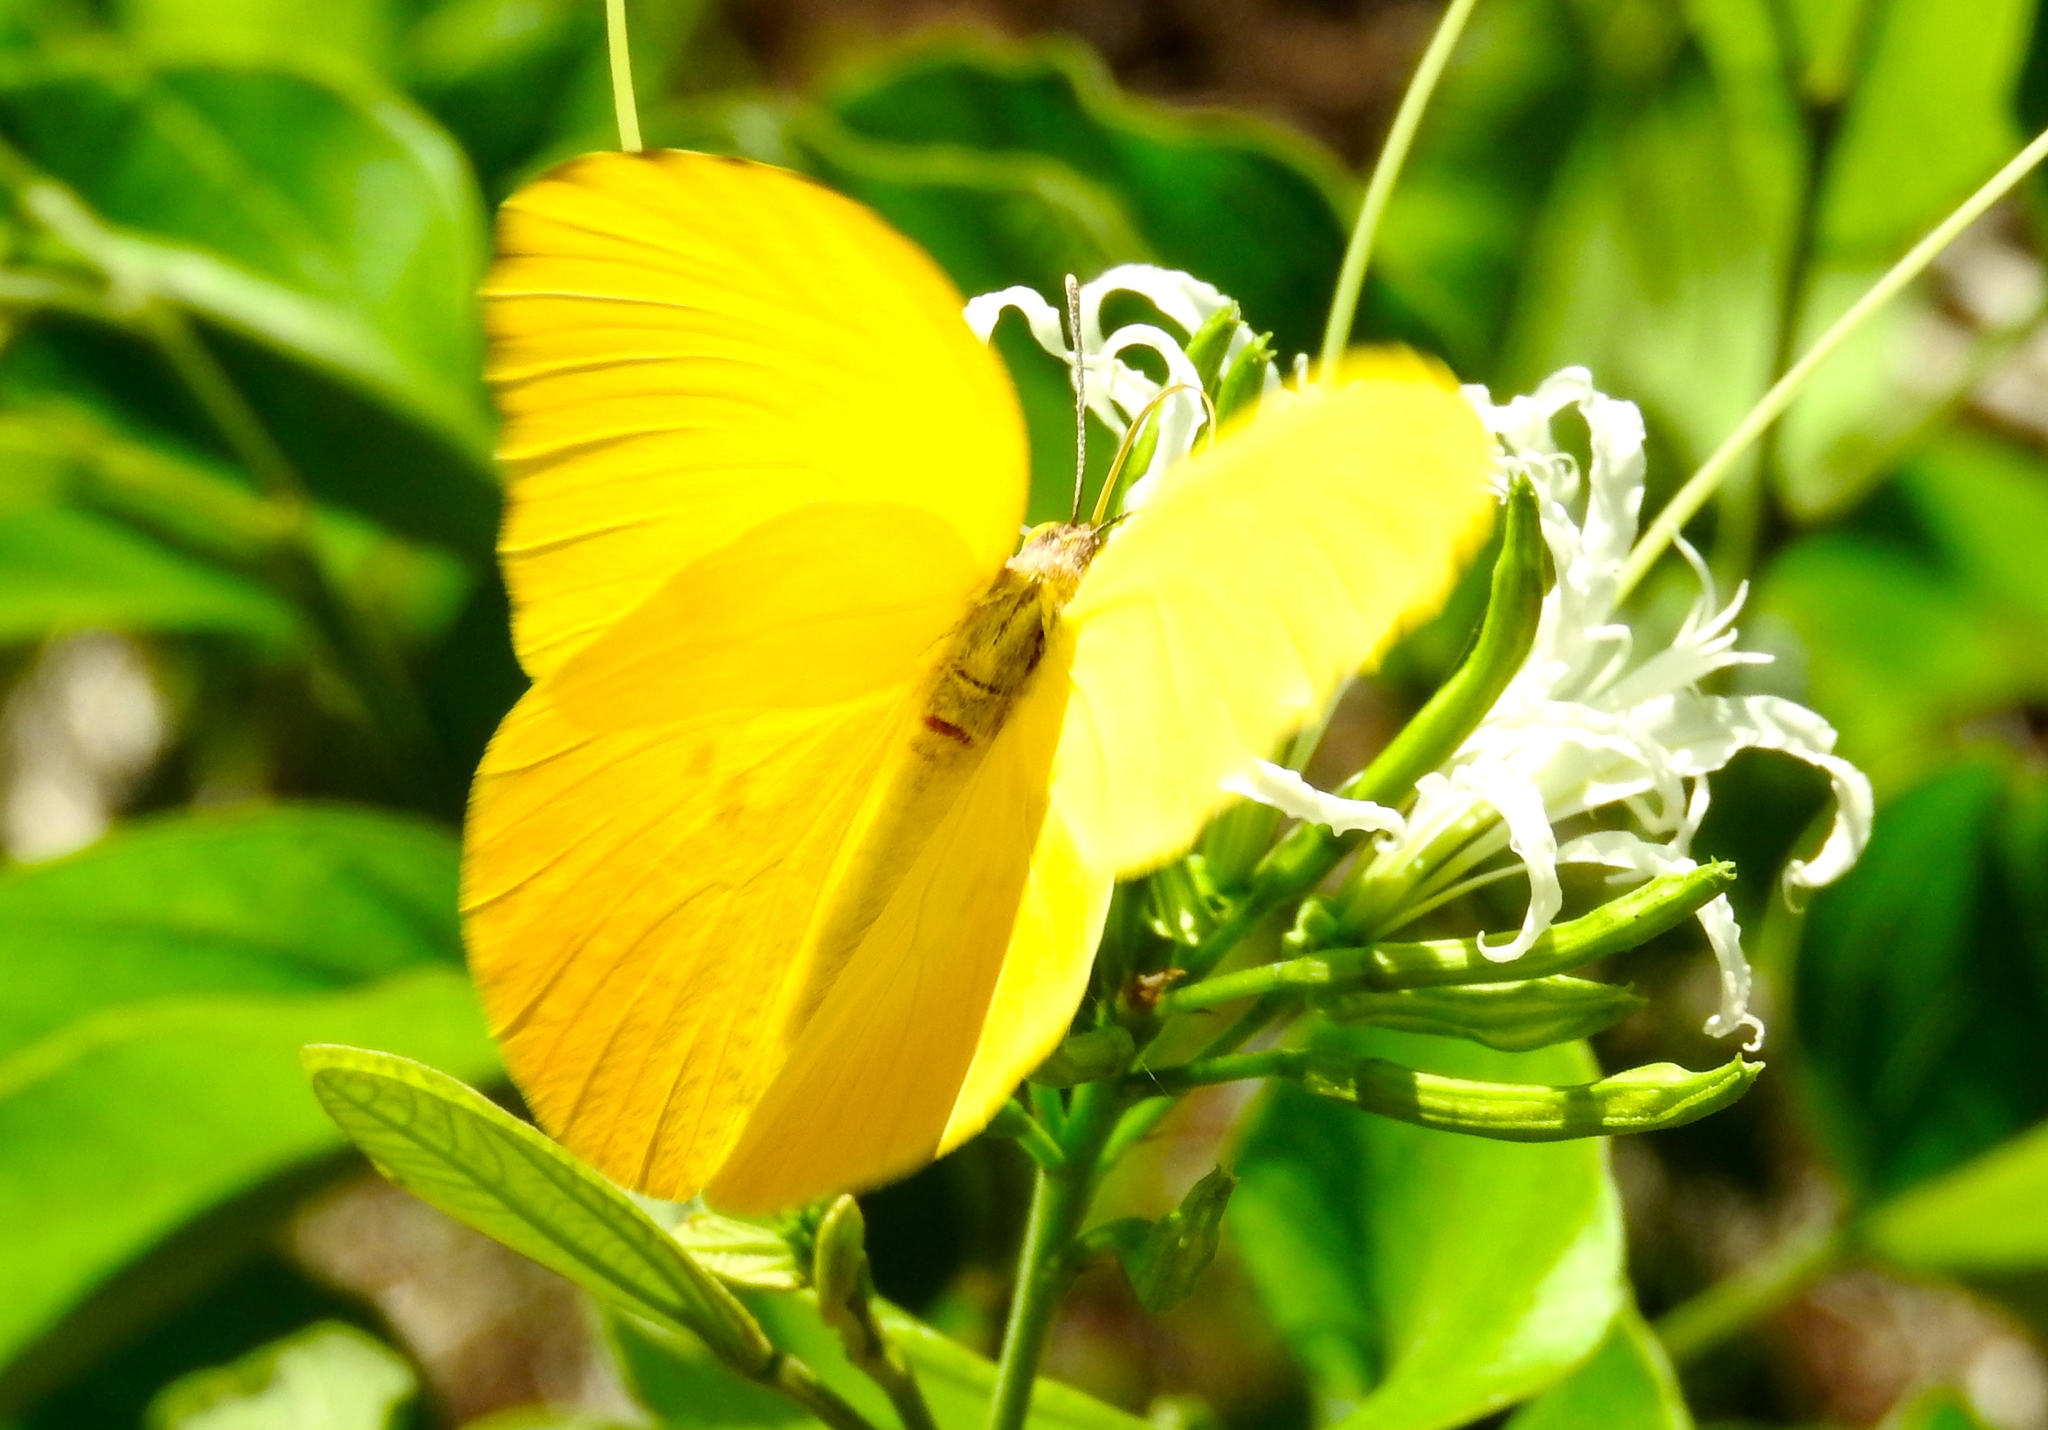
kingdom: Animalia
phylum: Arthropoda
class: Insecta
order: Lepidoptera
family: Pieridae
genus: Prestonia
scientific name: Prestonia clarki
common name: West-mexican sulphur
